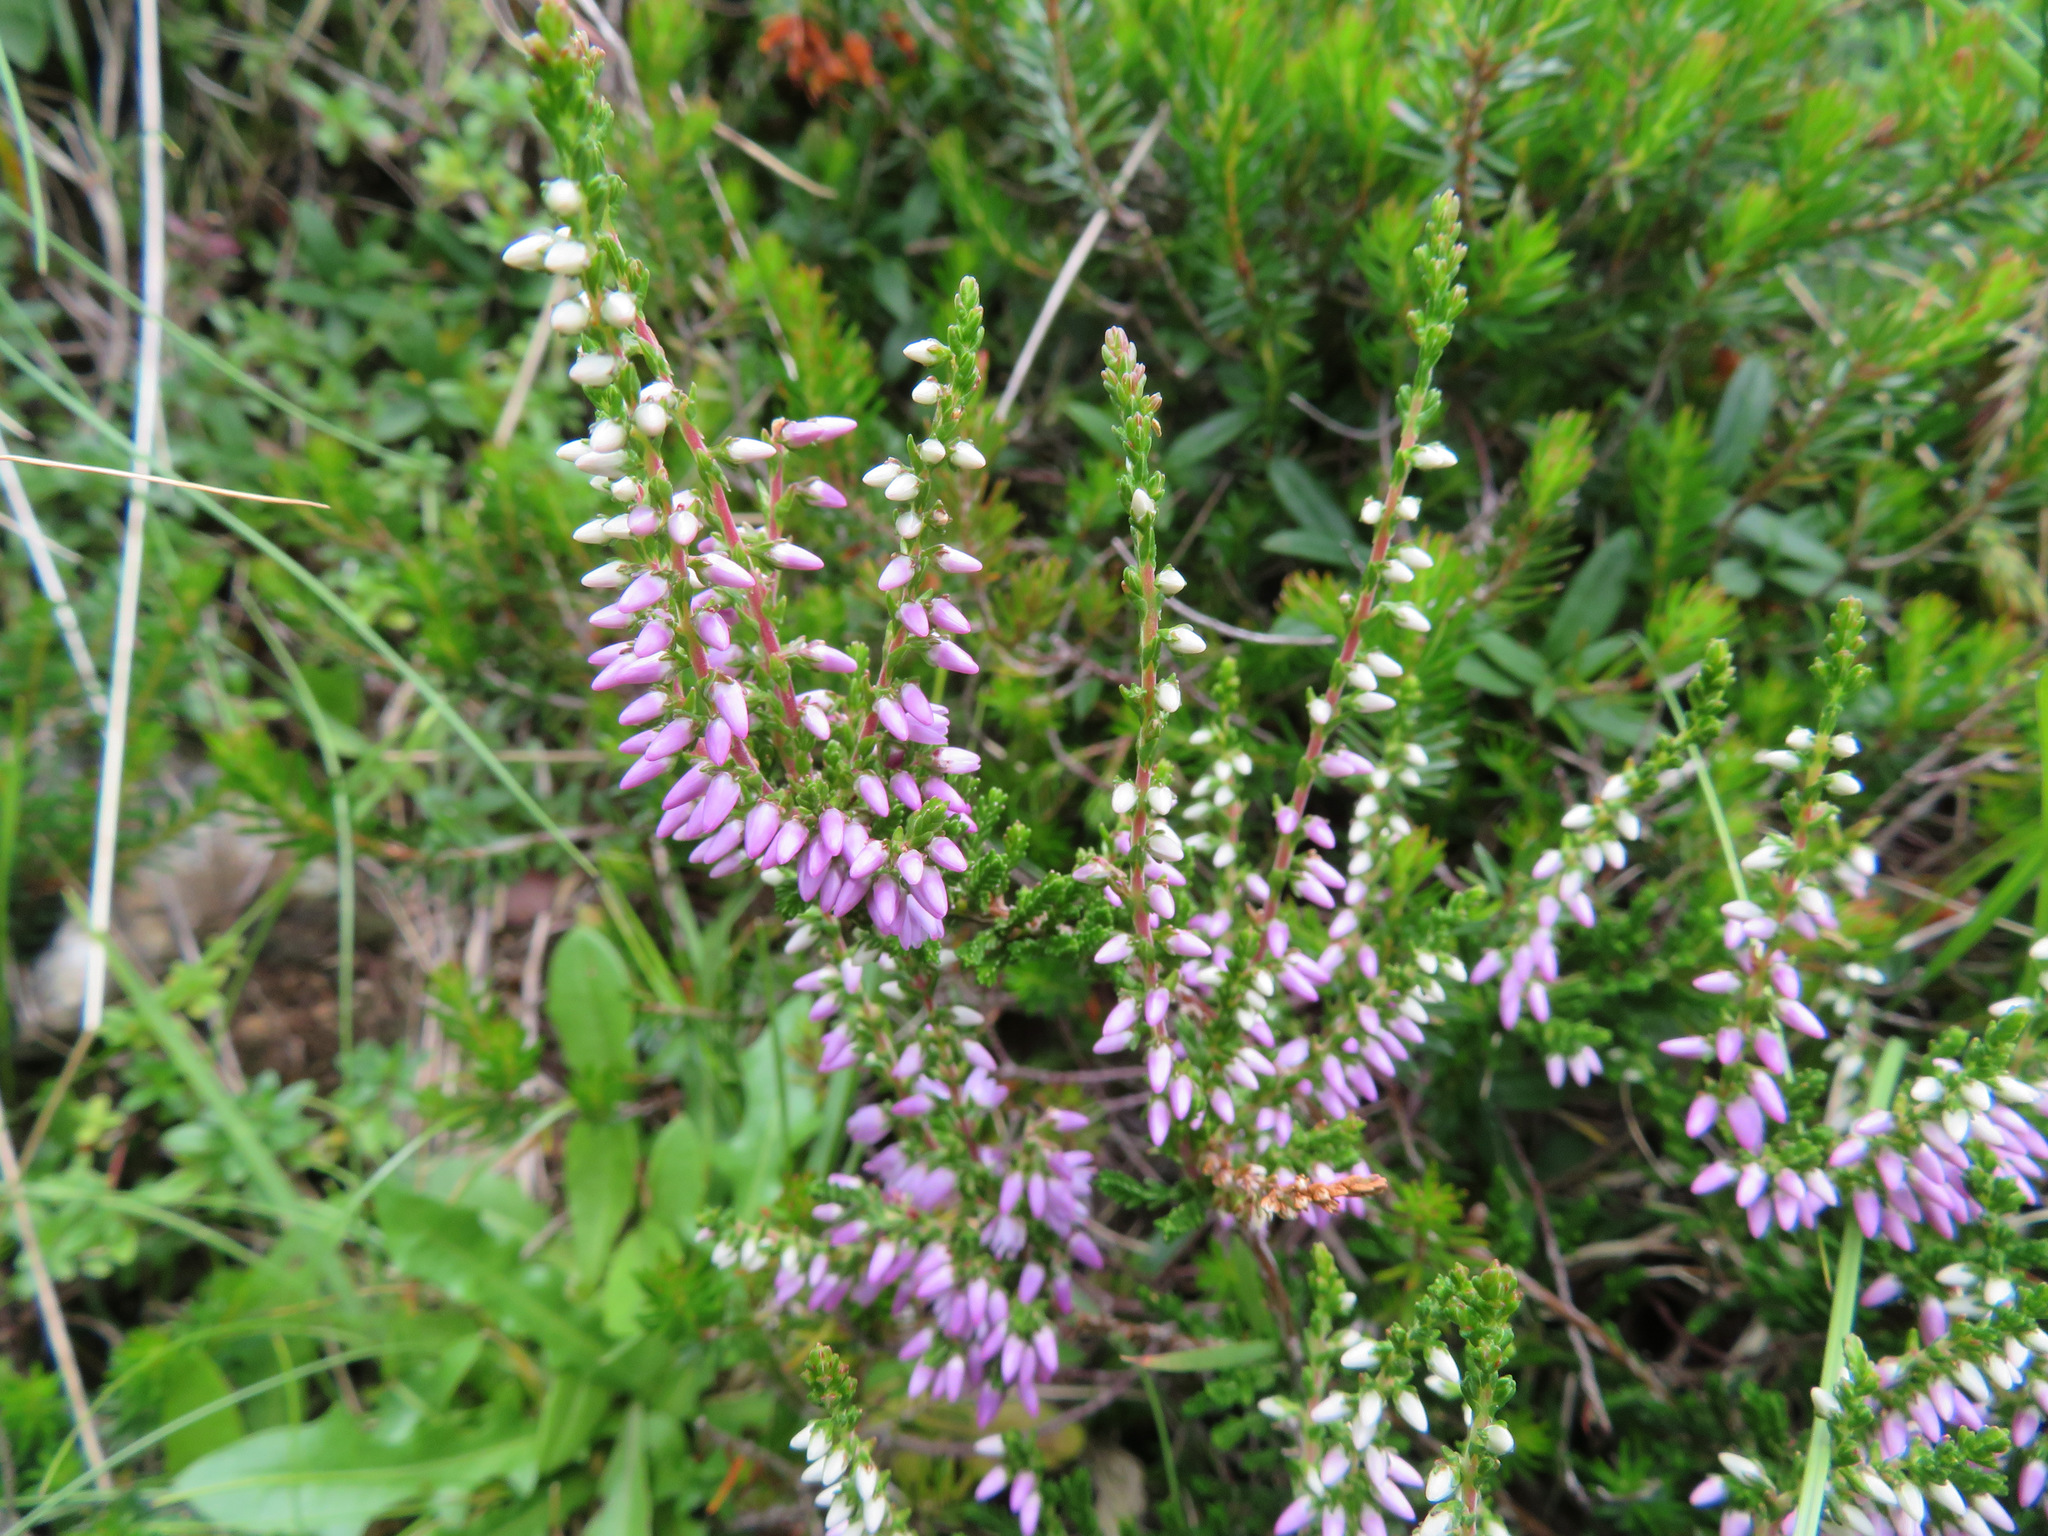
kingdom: Plantae
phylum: Tracheophyta
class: Magnoliopsida
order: Ericales
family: Ericaceae
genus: Calluna
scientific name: Calluna vulgaris
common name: Heather
